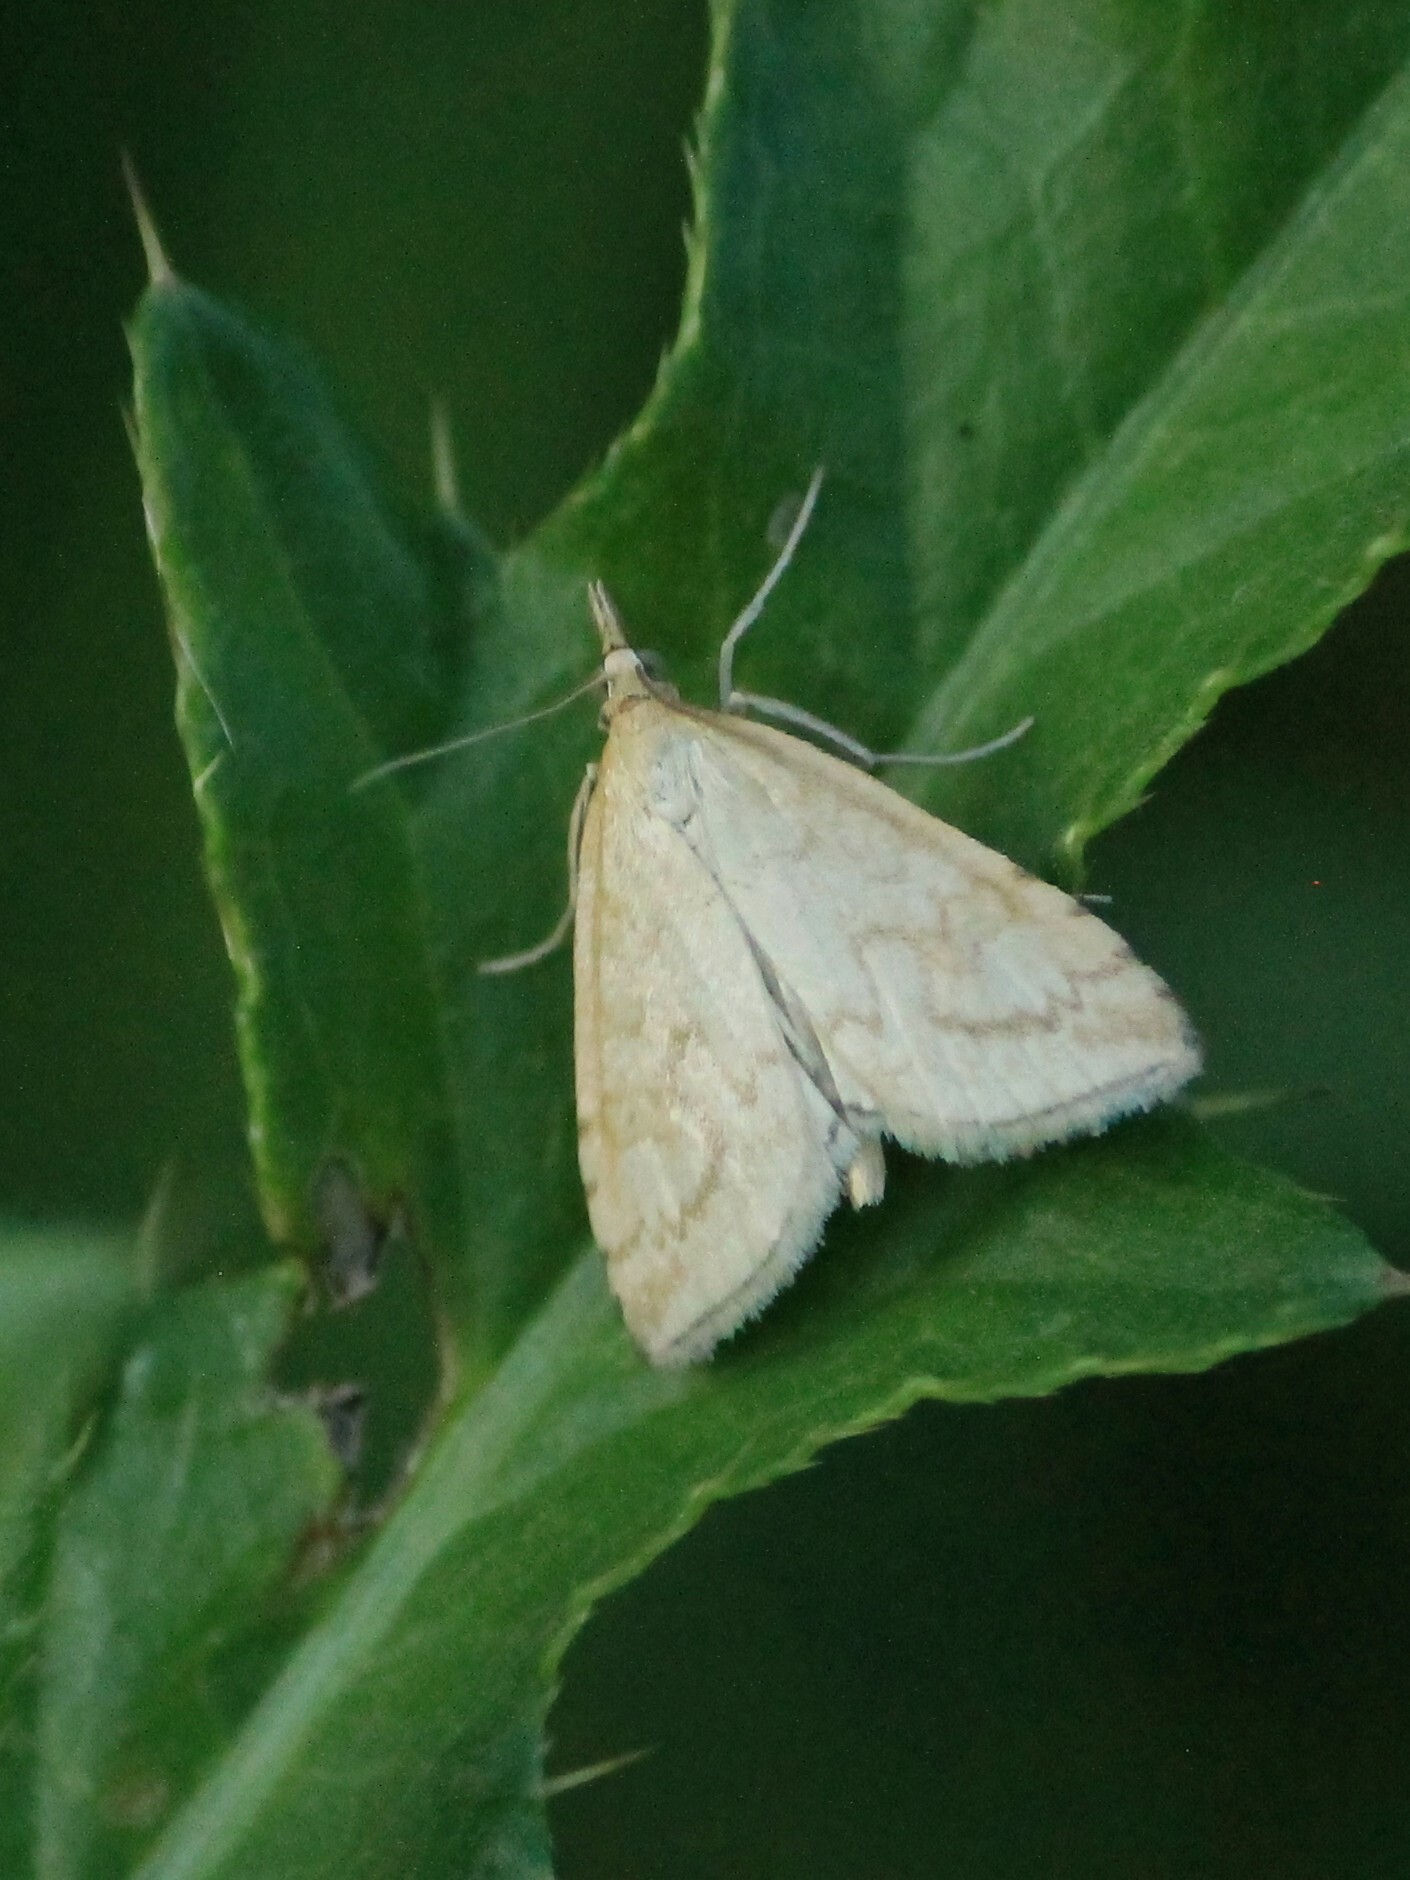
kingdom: Animalia
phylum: Arthropoda
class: Insecta
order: Lepidoptera
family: Crambidae
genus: Udea
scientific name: Udea lutealis
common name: Pale straw pearl
